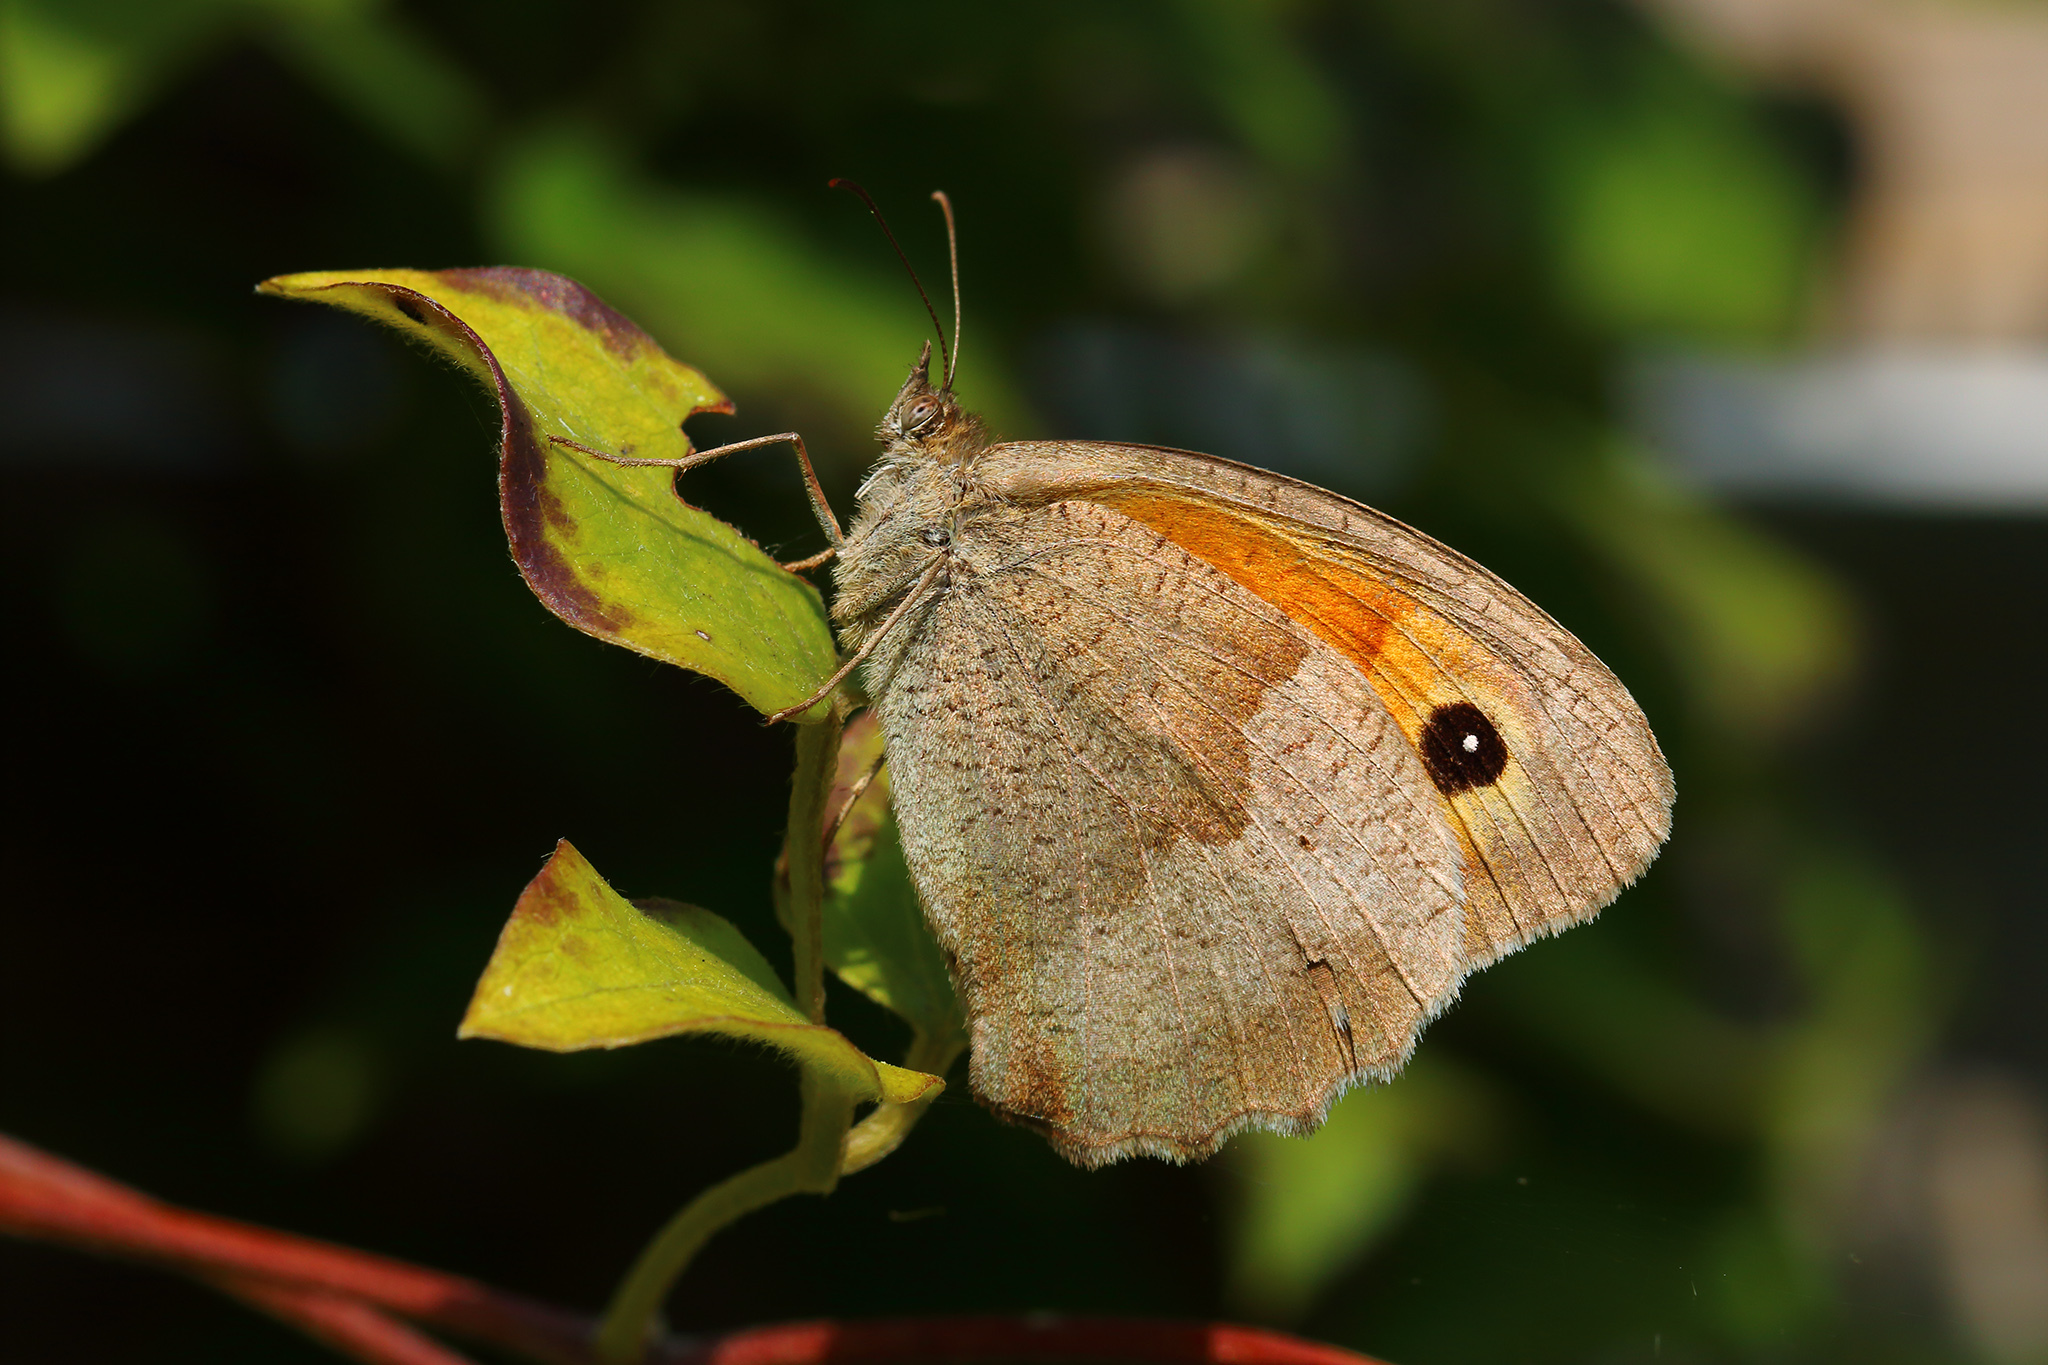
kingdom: Animalia
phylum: Arthropoda
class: Insecta
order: Lepidoptera
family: Nymphalidae
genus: Maniola
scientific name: Maniola jurtina
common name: Meadow brown
